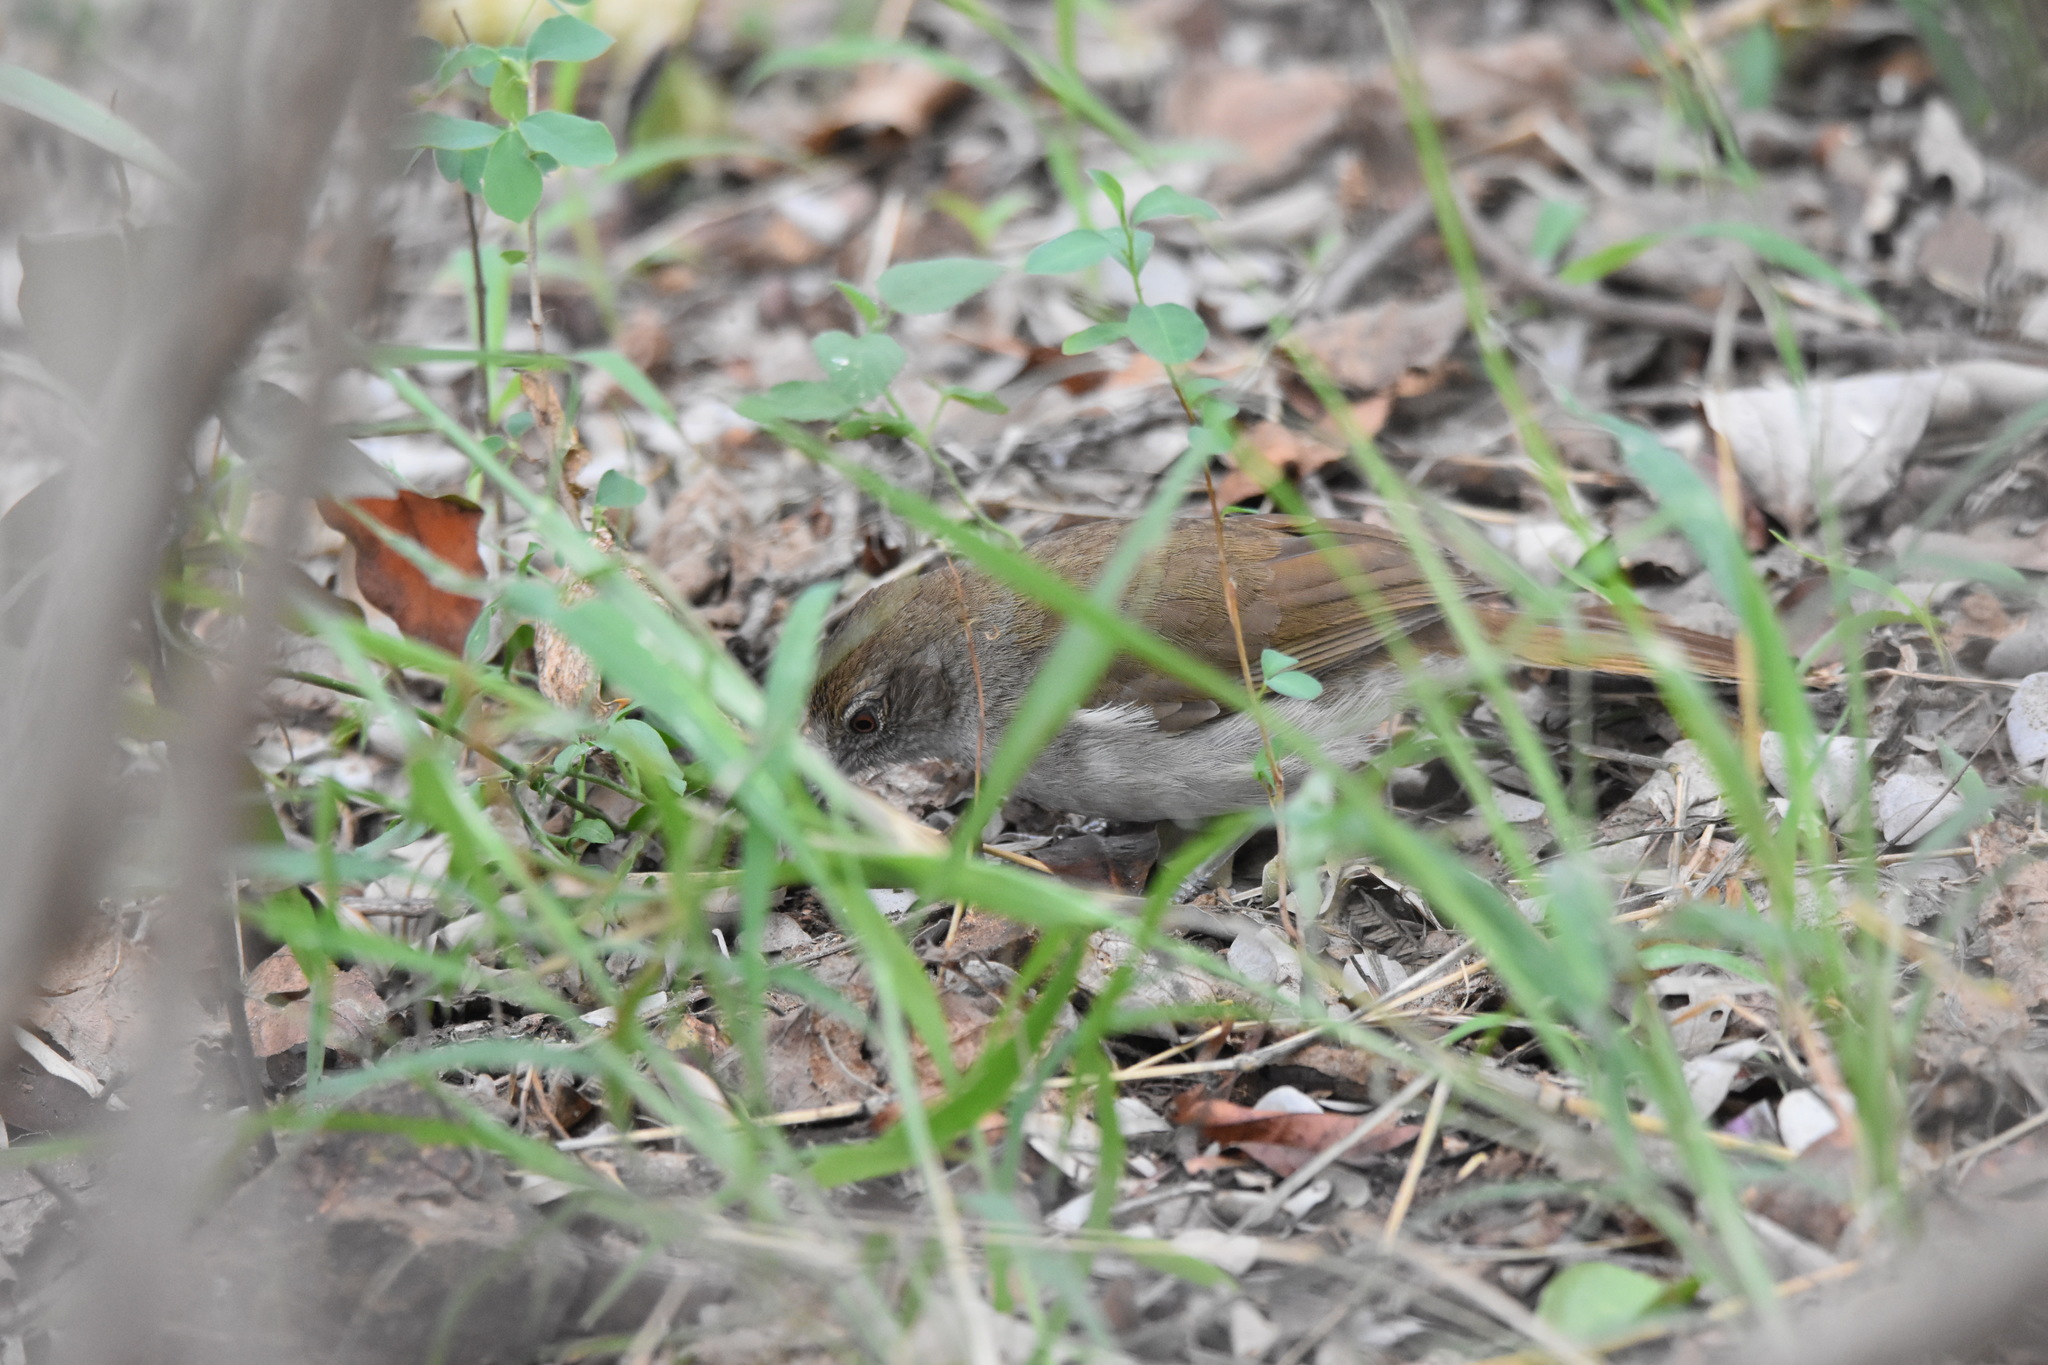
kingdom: Animalia
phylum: Chordata
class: Aves
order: Passeriformes
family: Pycnonotidae
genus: Phyllastrephus
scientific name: Phyllastrephus terrestris
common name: Terrestrial brownbul
